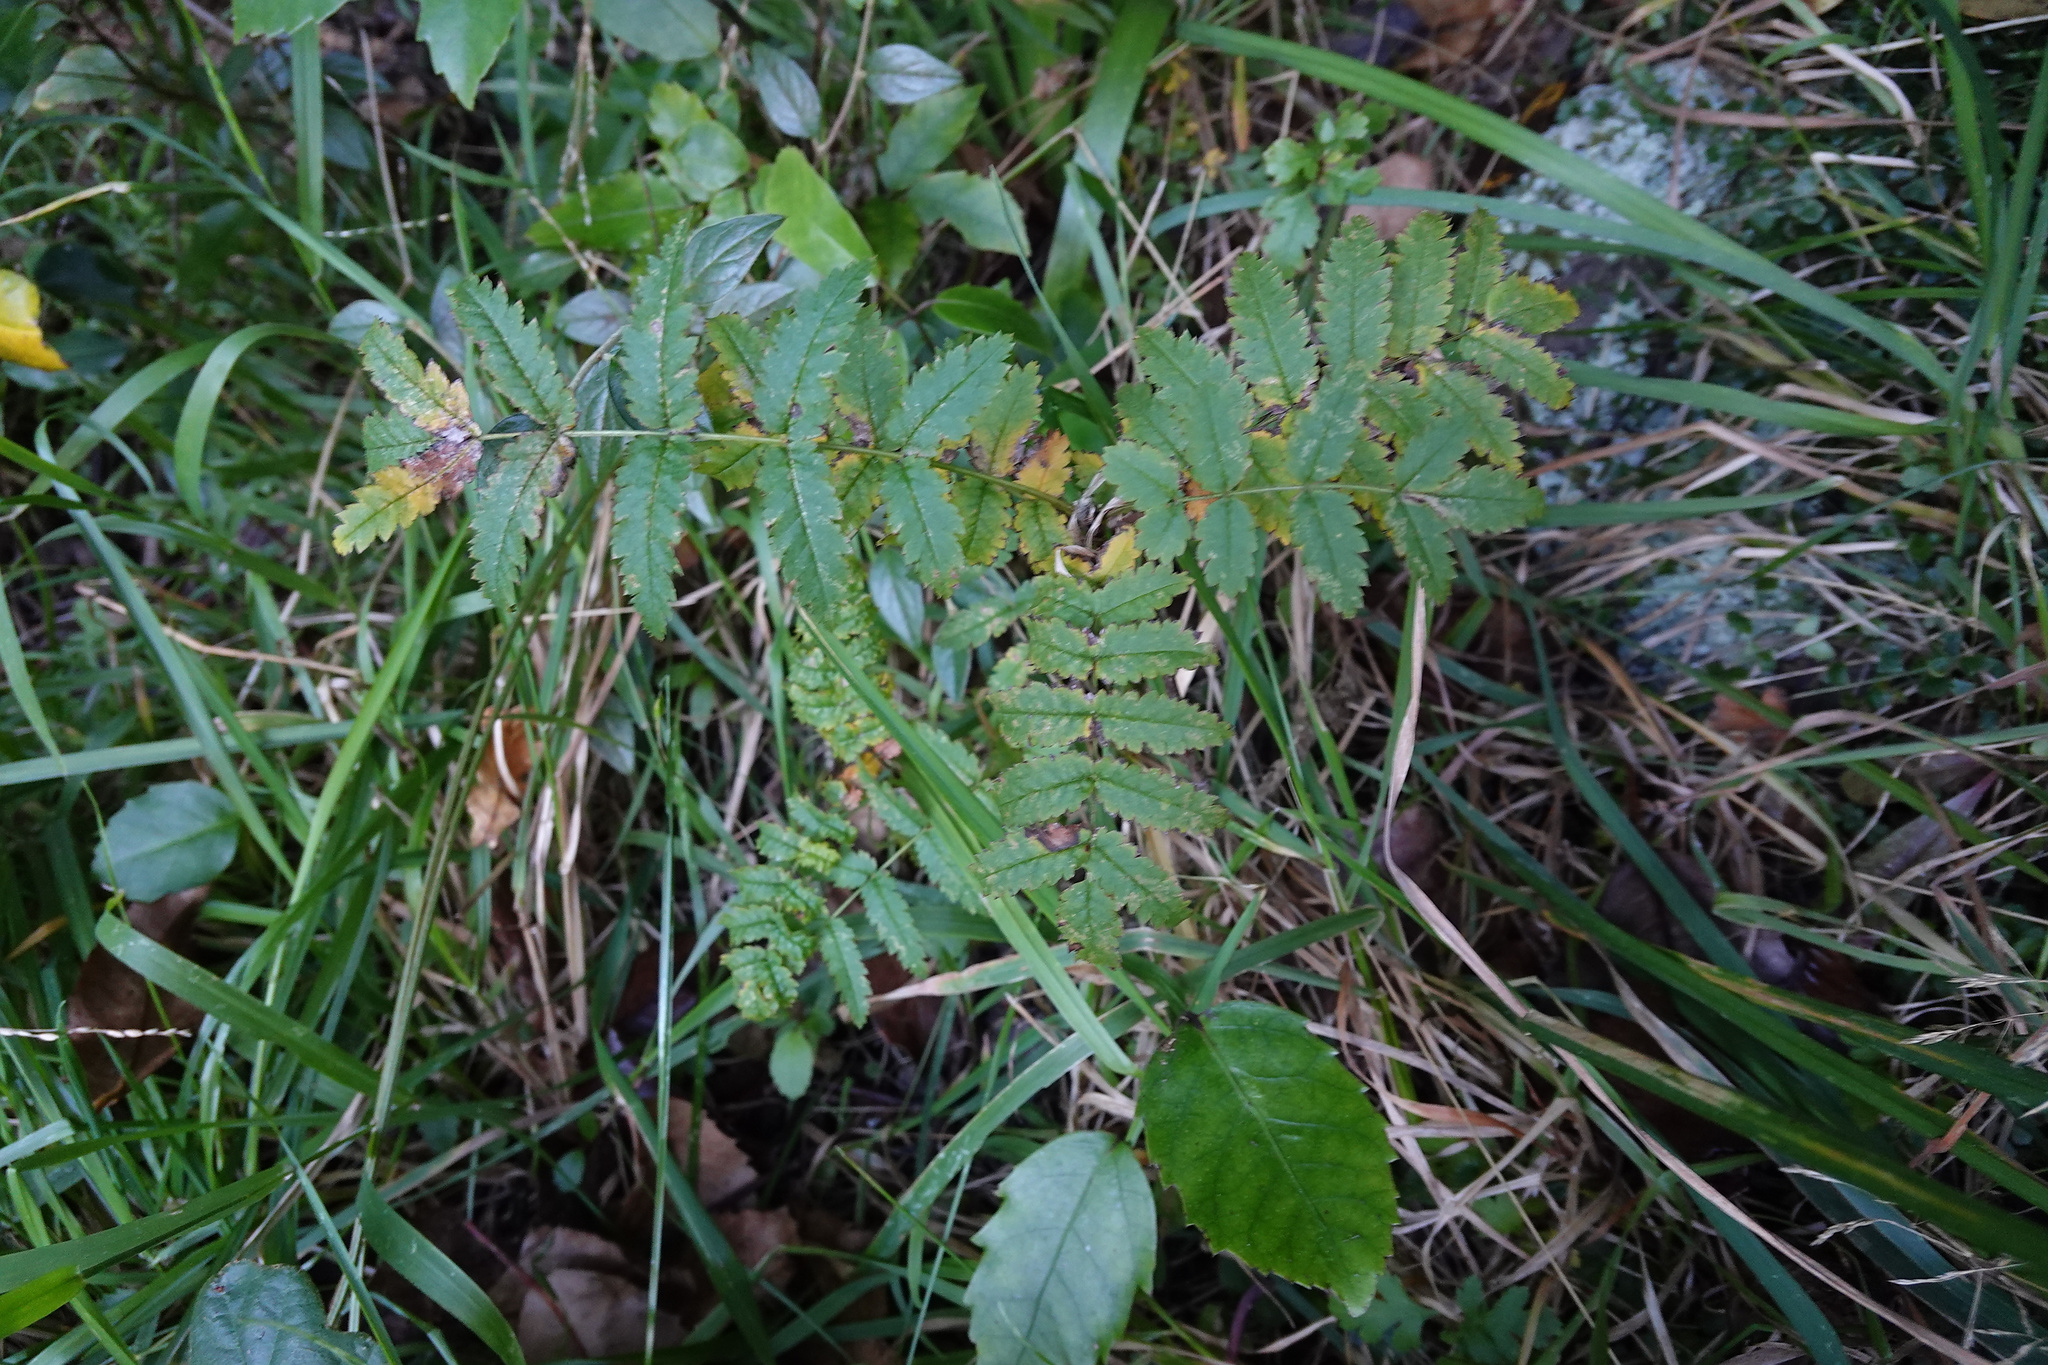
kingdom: Plantae
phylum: Tracheophyta
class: Magnoliopsida
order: Rosales
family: Rosaceae
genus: Sorbus
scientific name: Sorbus aucuparia
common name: Rowan
